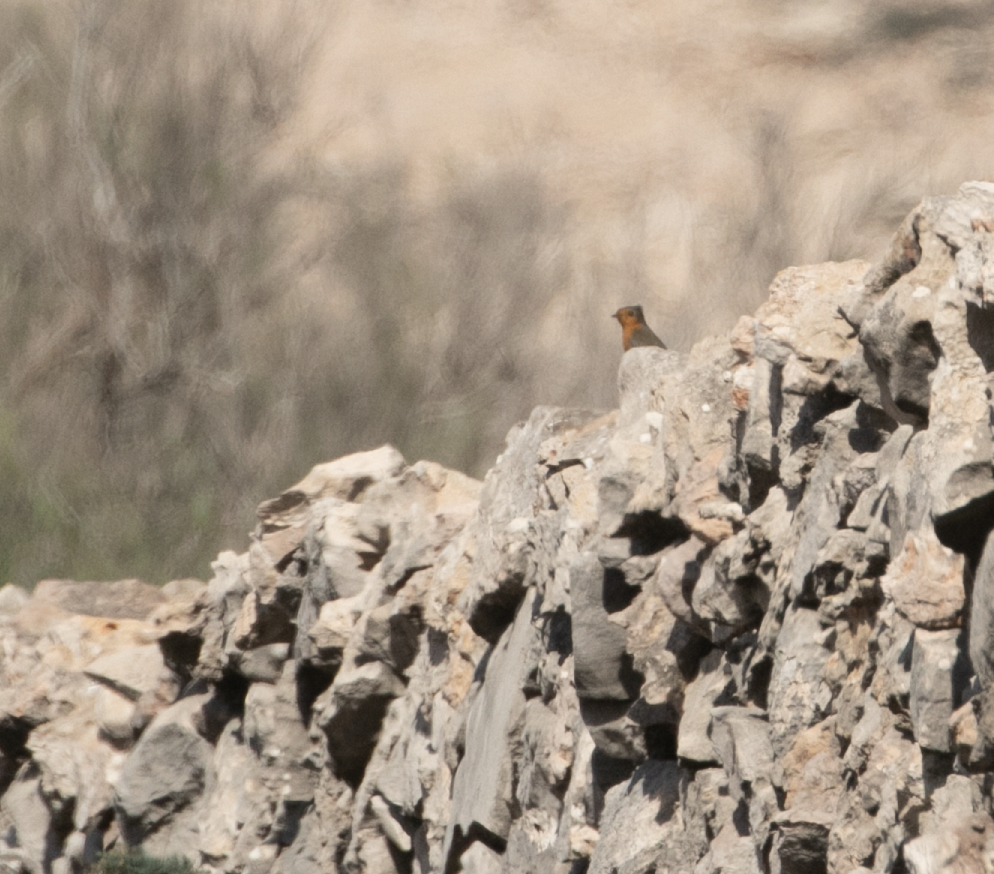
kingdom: Animalia
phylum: Chordata
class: Aves
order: Passeriformes
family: Muscicapidae
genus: Erithacus
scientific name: Erithacus rubecula
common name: European robin
